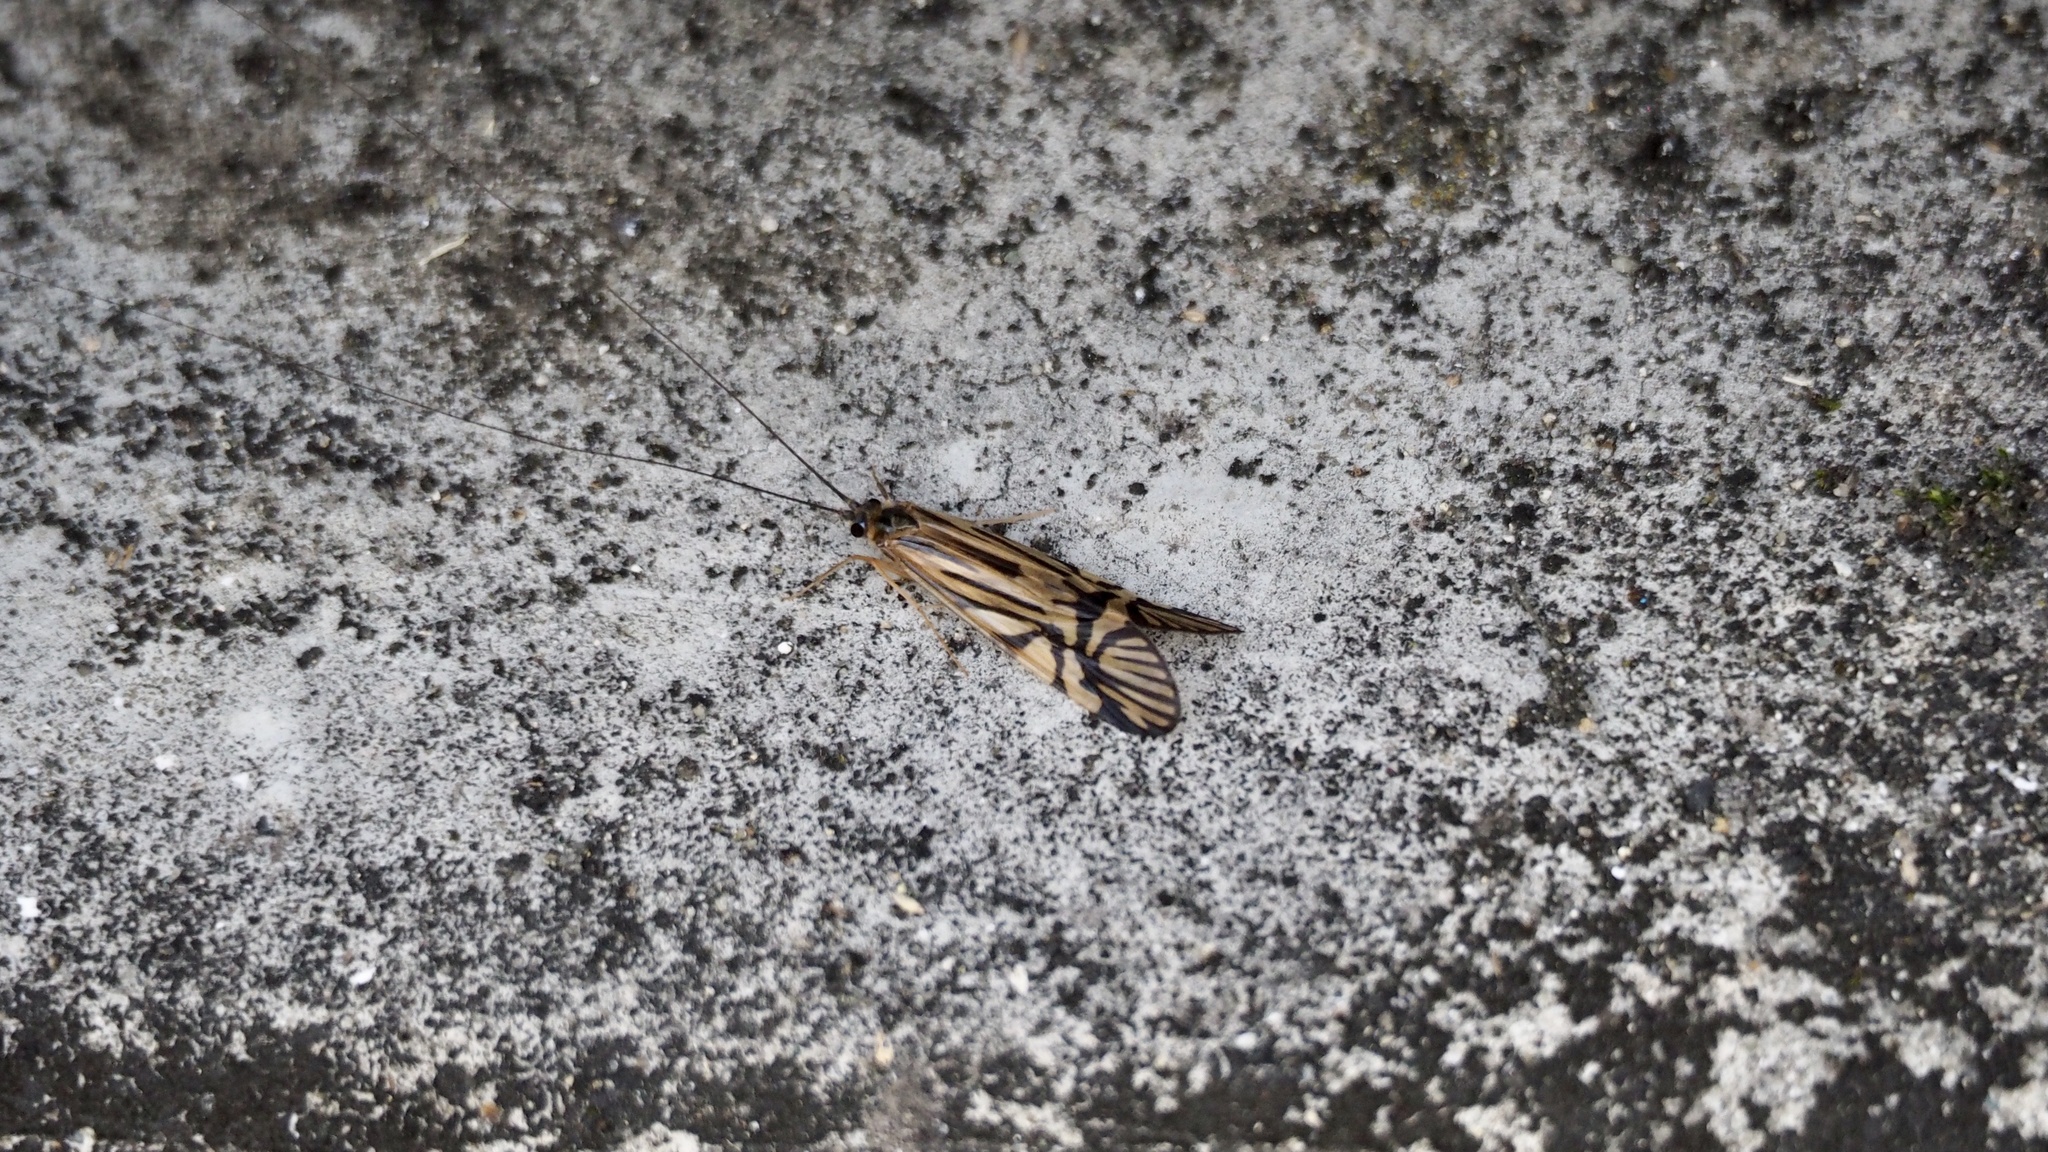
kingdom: Animalia
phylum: Arthropoda
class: Insecta
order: Trichoptera
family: Hydropsychidae
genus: Macrostemum
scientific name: Macrostemum radiatum
